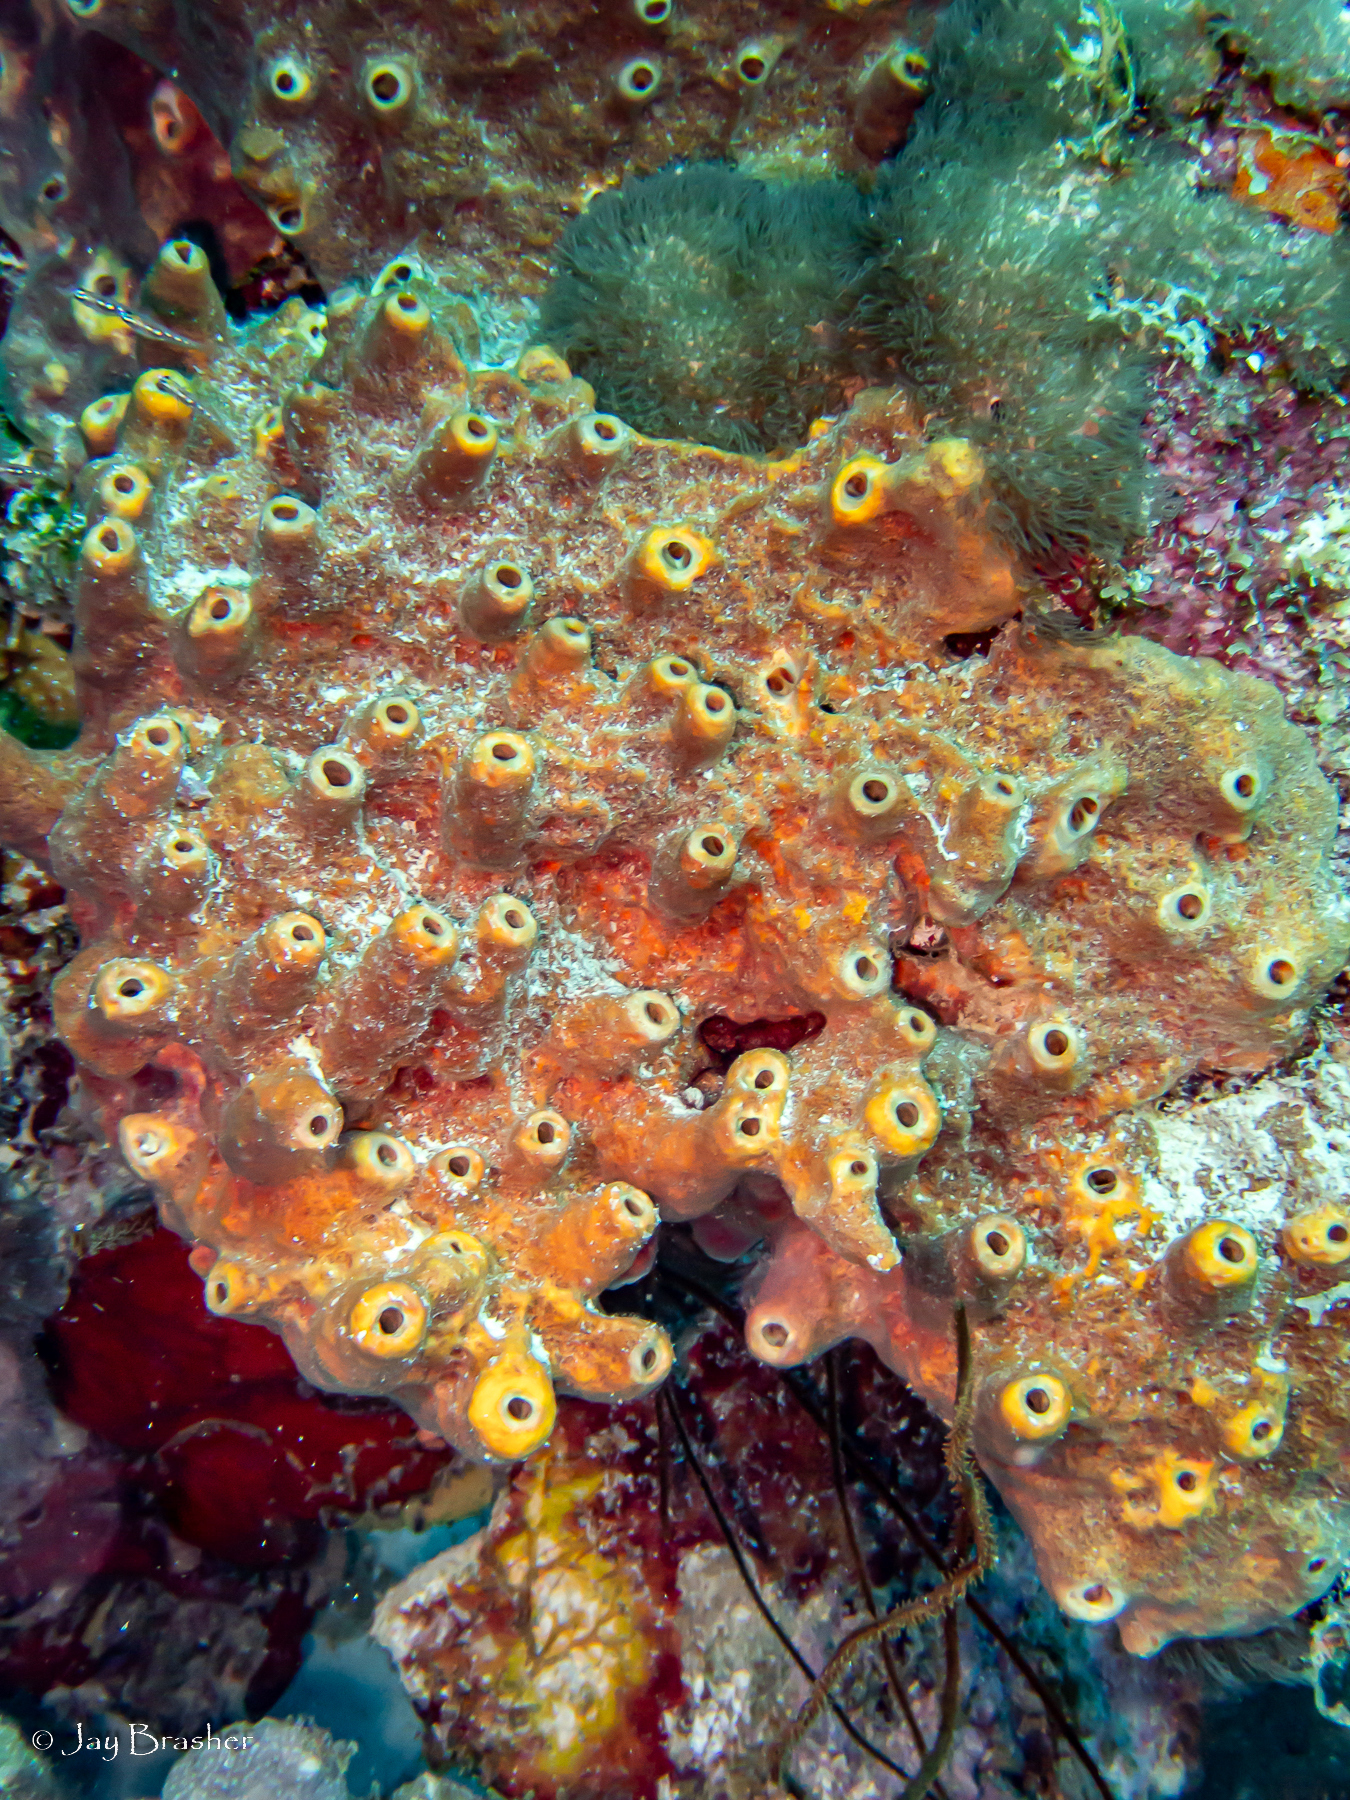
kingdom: Animalia
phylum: Porifera
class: Demospongiae
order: Axinellida
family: Raspailiidae
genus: Ectyoplasia
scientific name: Ectyoplasia ferox
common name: Brown encrusting octopus sponge
